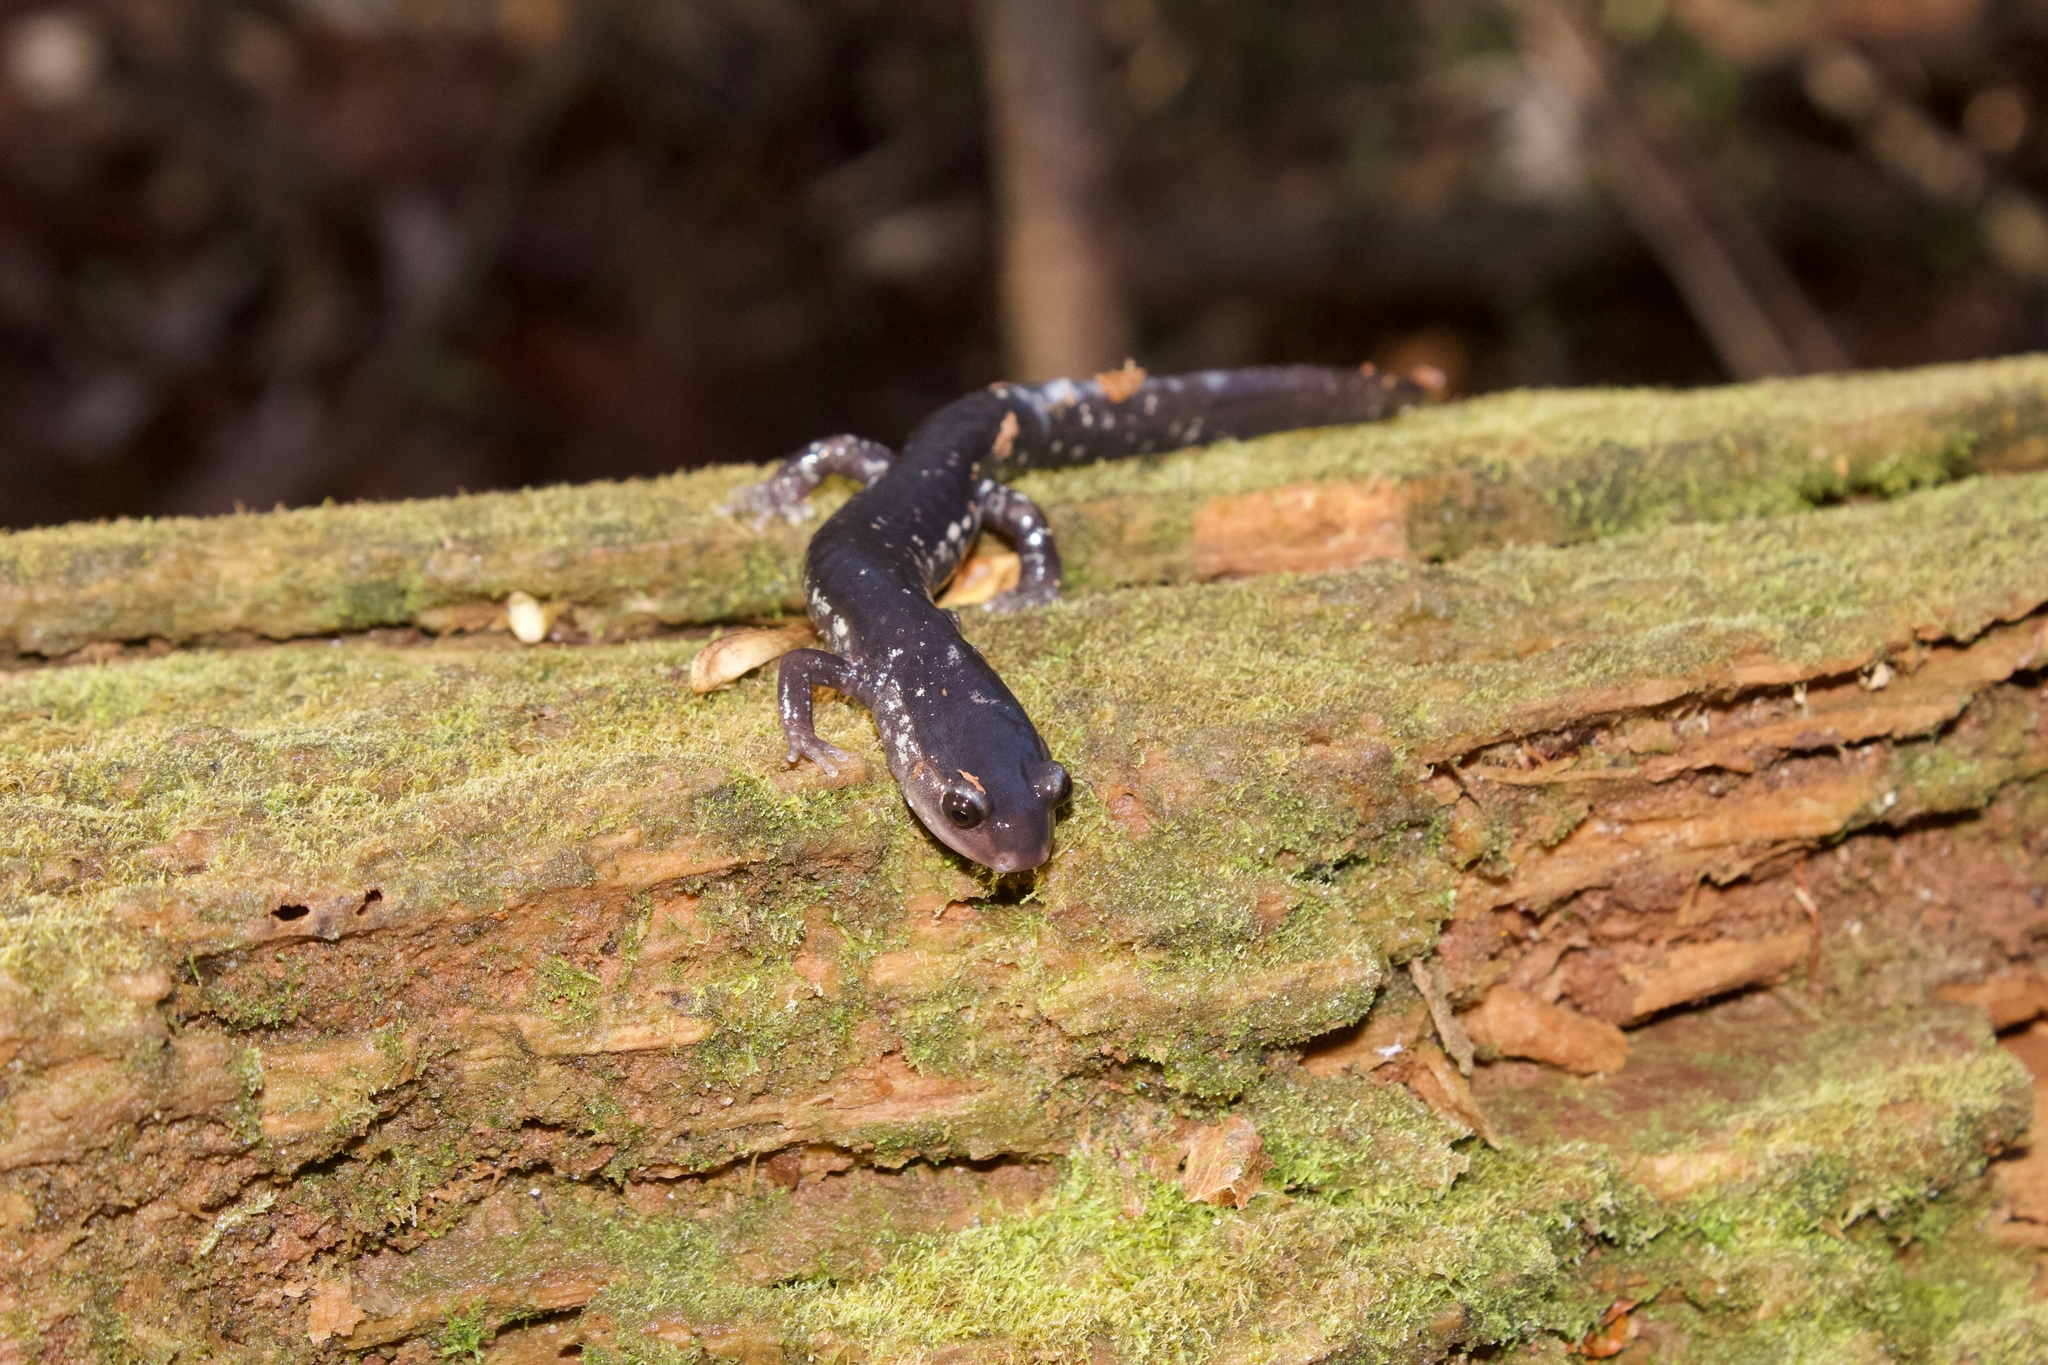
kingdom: Animalia
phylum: Chordata
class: Amphibia
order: Caudata
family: Plethodontidae
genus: Plethodon
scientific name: Plethodon mississippi
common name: Mississippi slimy salamander
